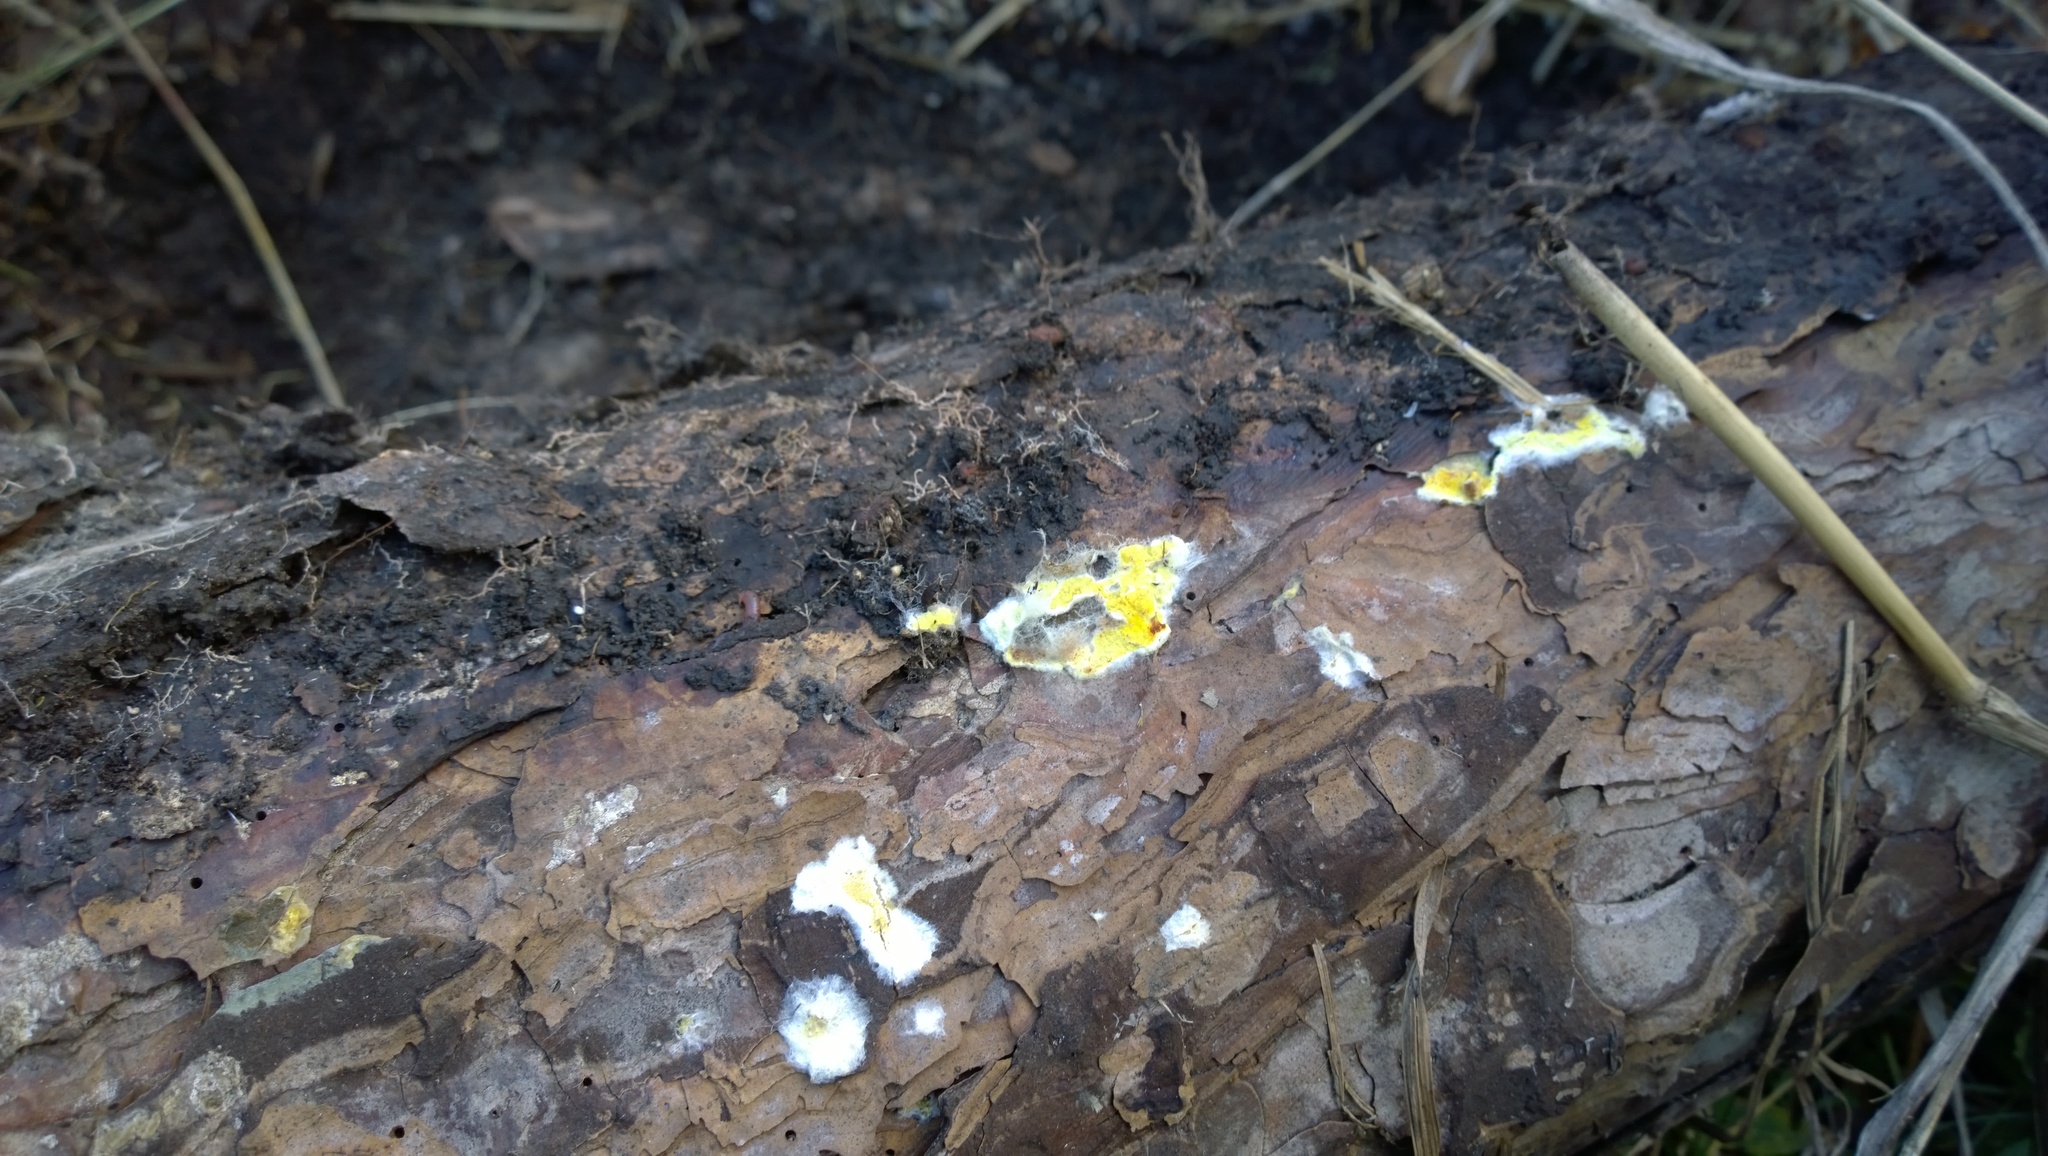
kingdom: Fungi
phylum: Basidiomycota
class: Agaricomycetes
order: Boletales
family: Coniophoraceae
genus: Penttilamyces
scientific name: Penttilamyces olivascens
